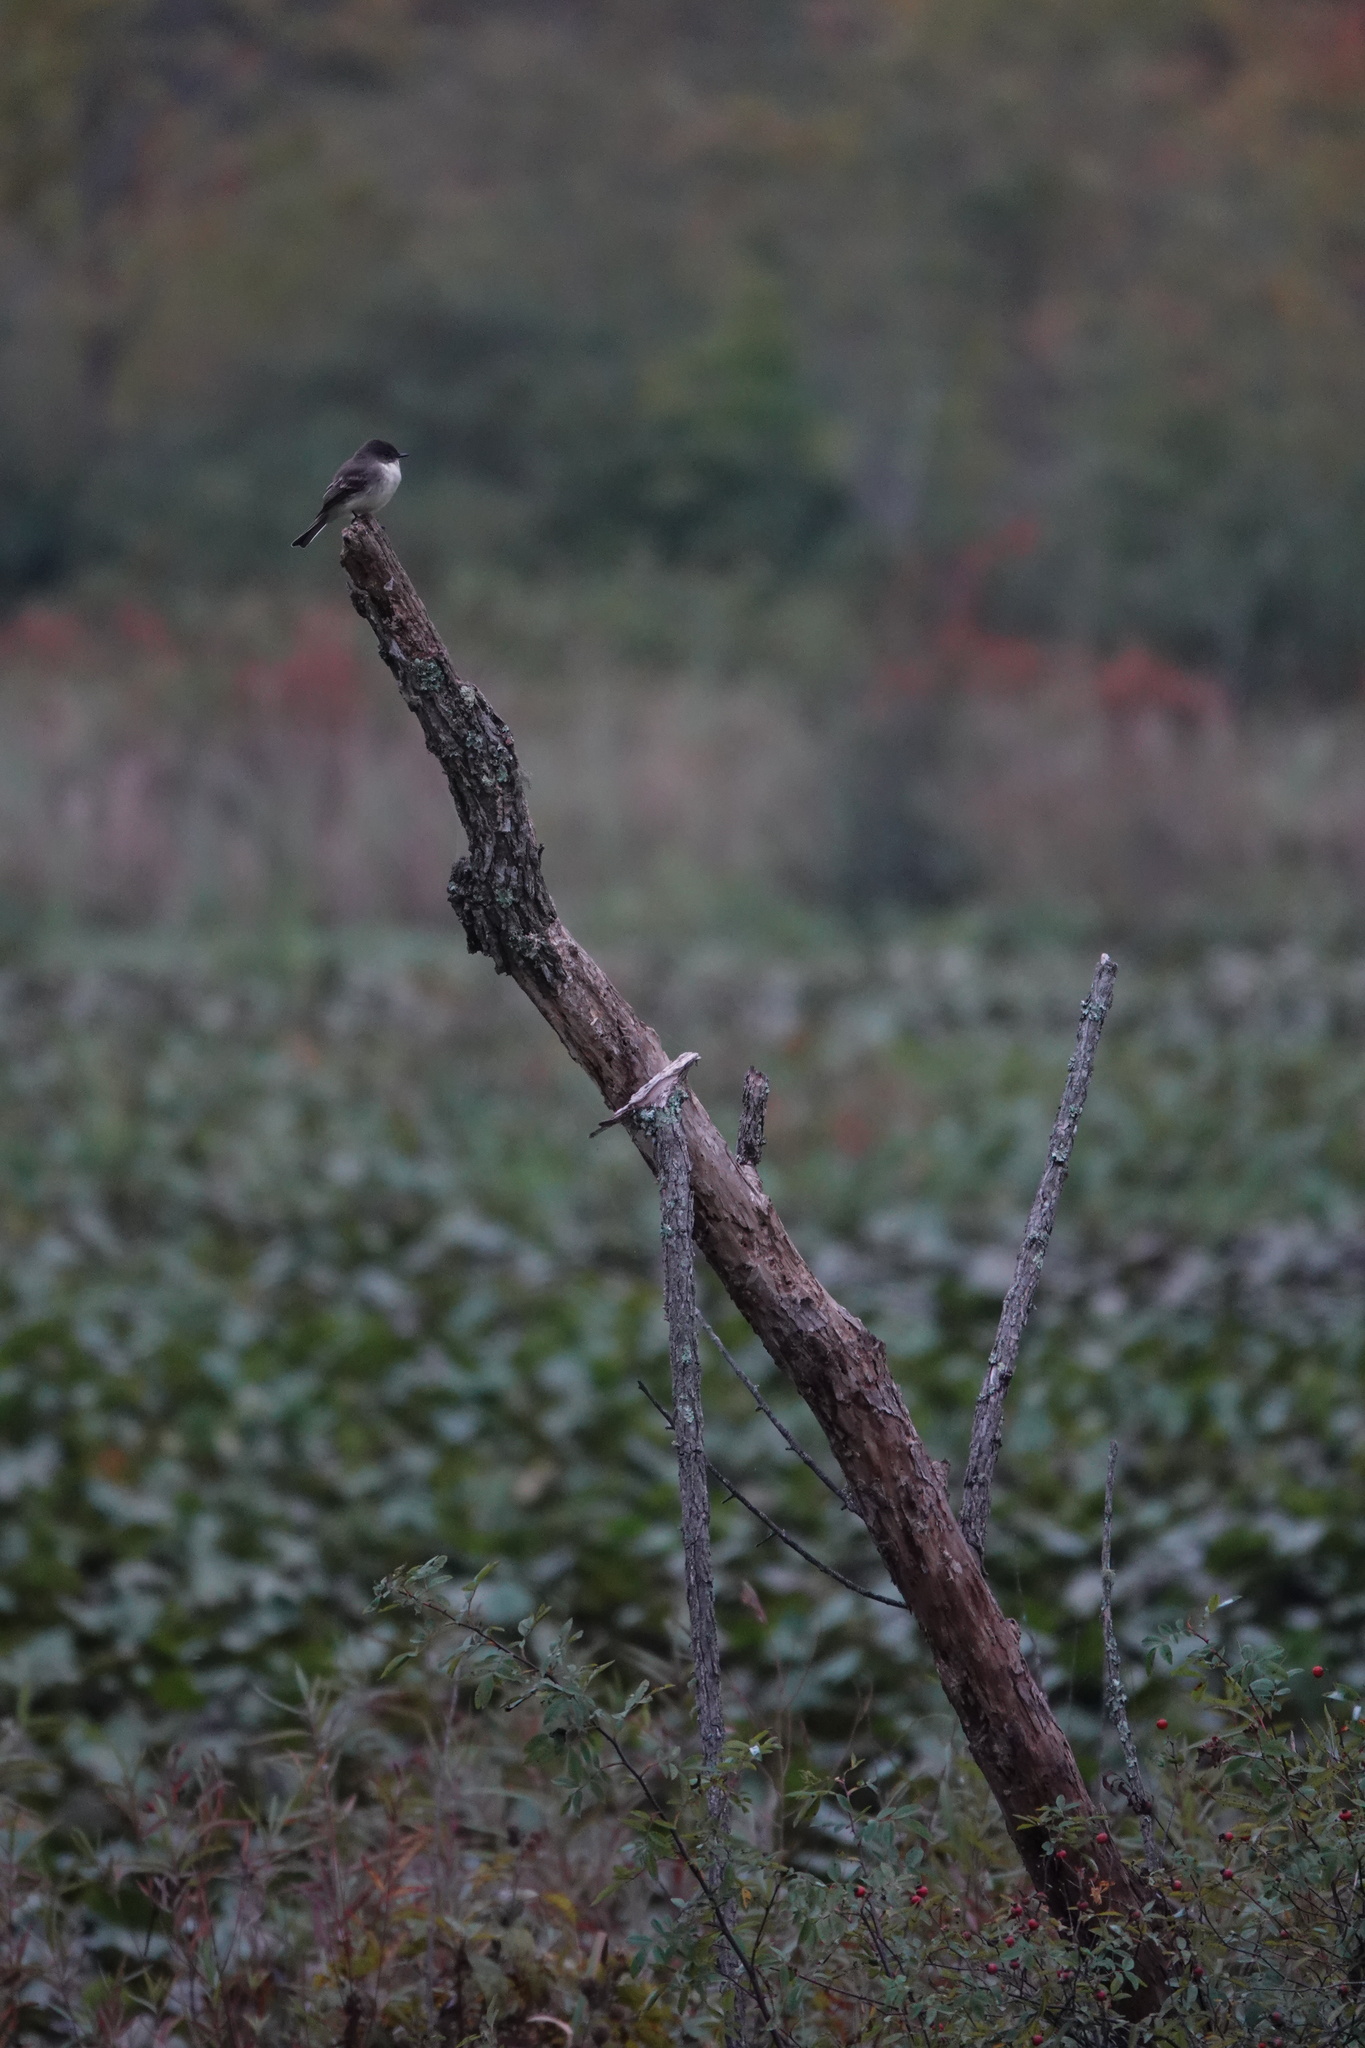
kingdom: Animalia
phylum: Chordata
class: Aves
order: Passeriformes
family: Tyrannidae
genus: Sayornis
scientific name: Sayornis phoebe
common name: Eastern phoebe
